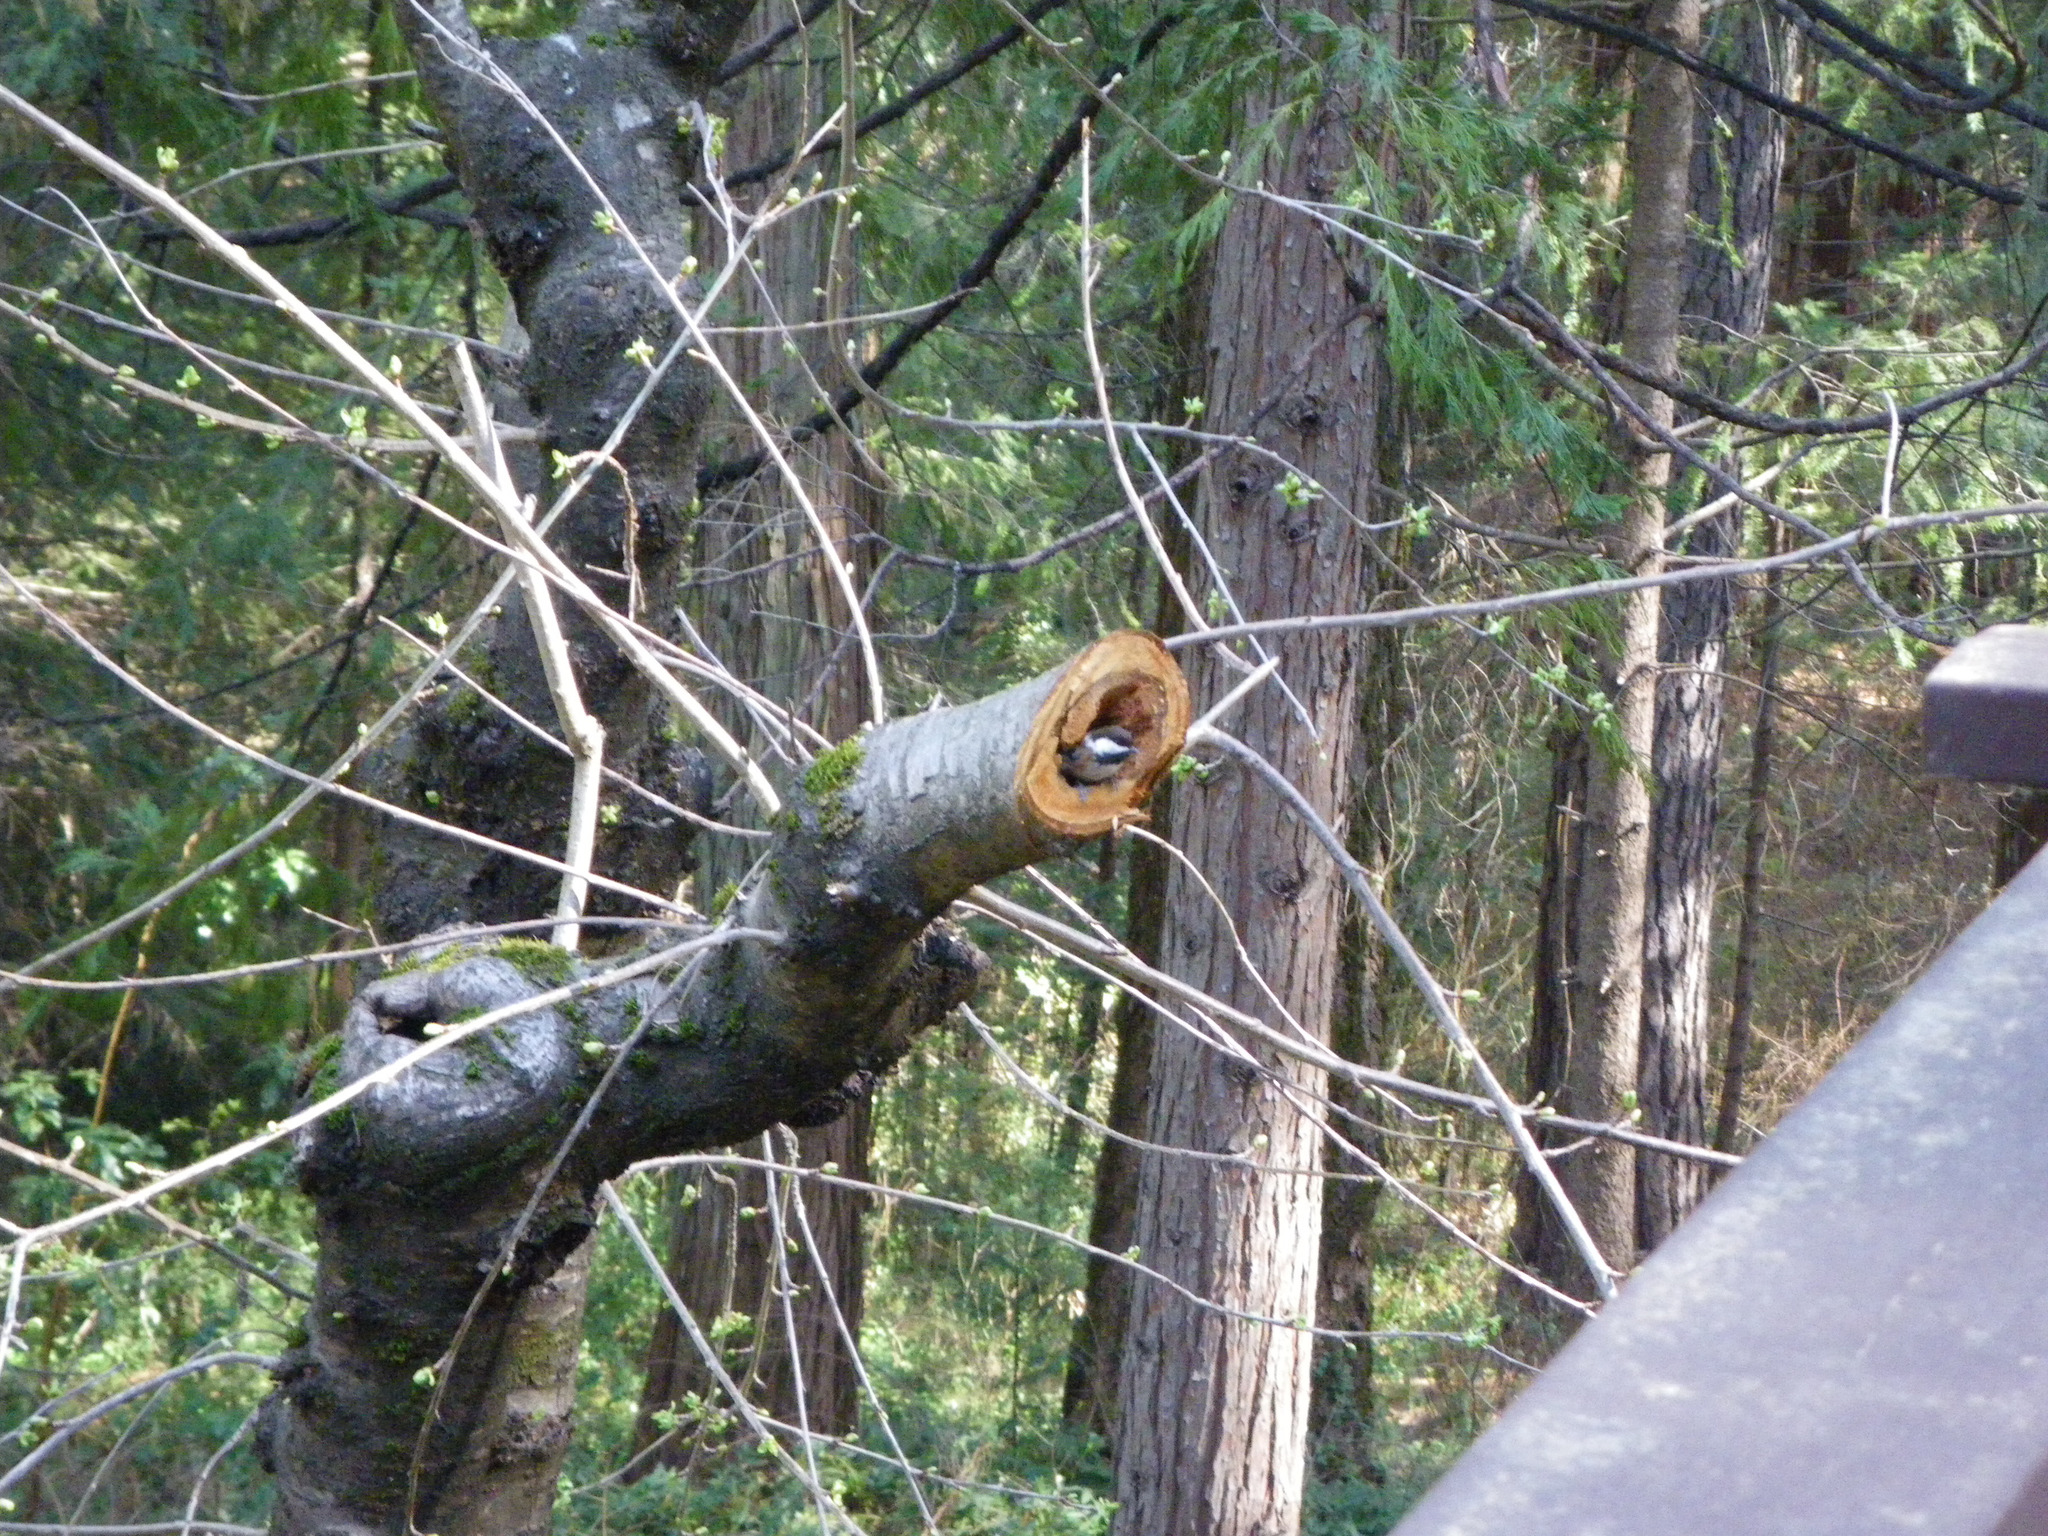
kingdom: Animalia
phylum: Chordata
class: Aves
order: Passeriformes
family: Paridae
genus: Poecile
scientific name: Poecile rufescens
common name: Chestnut-backed chickadee
